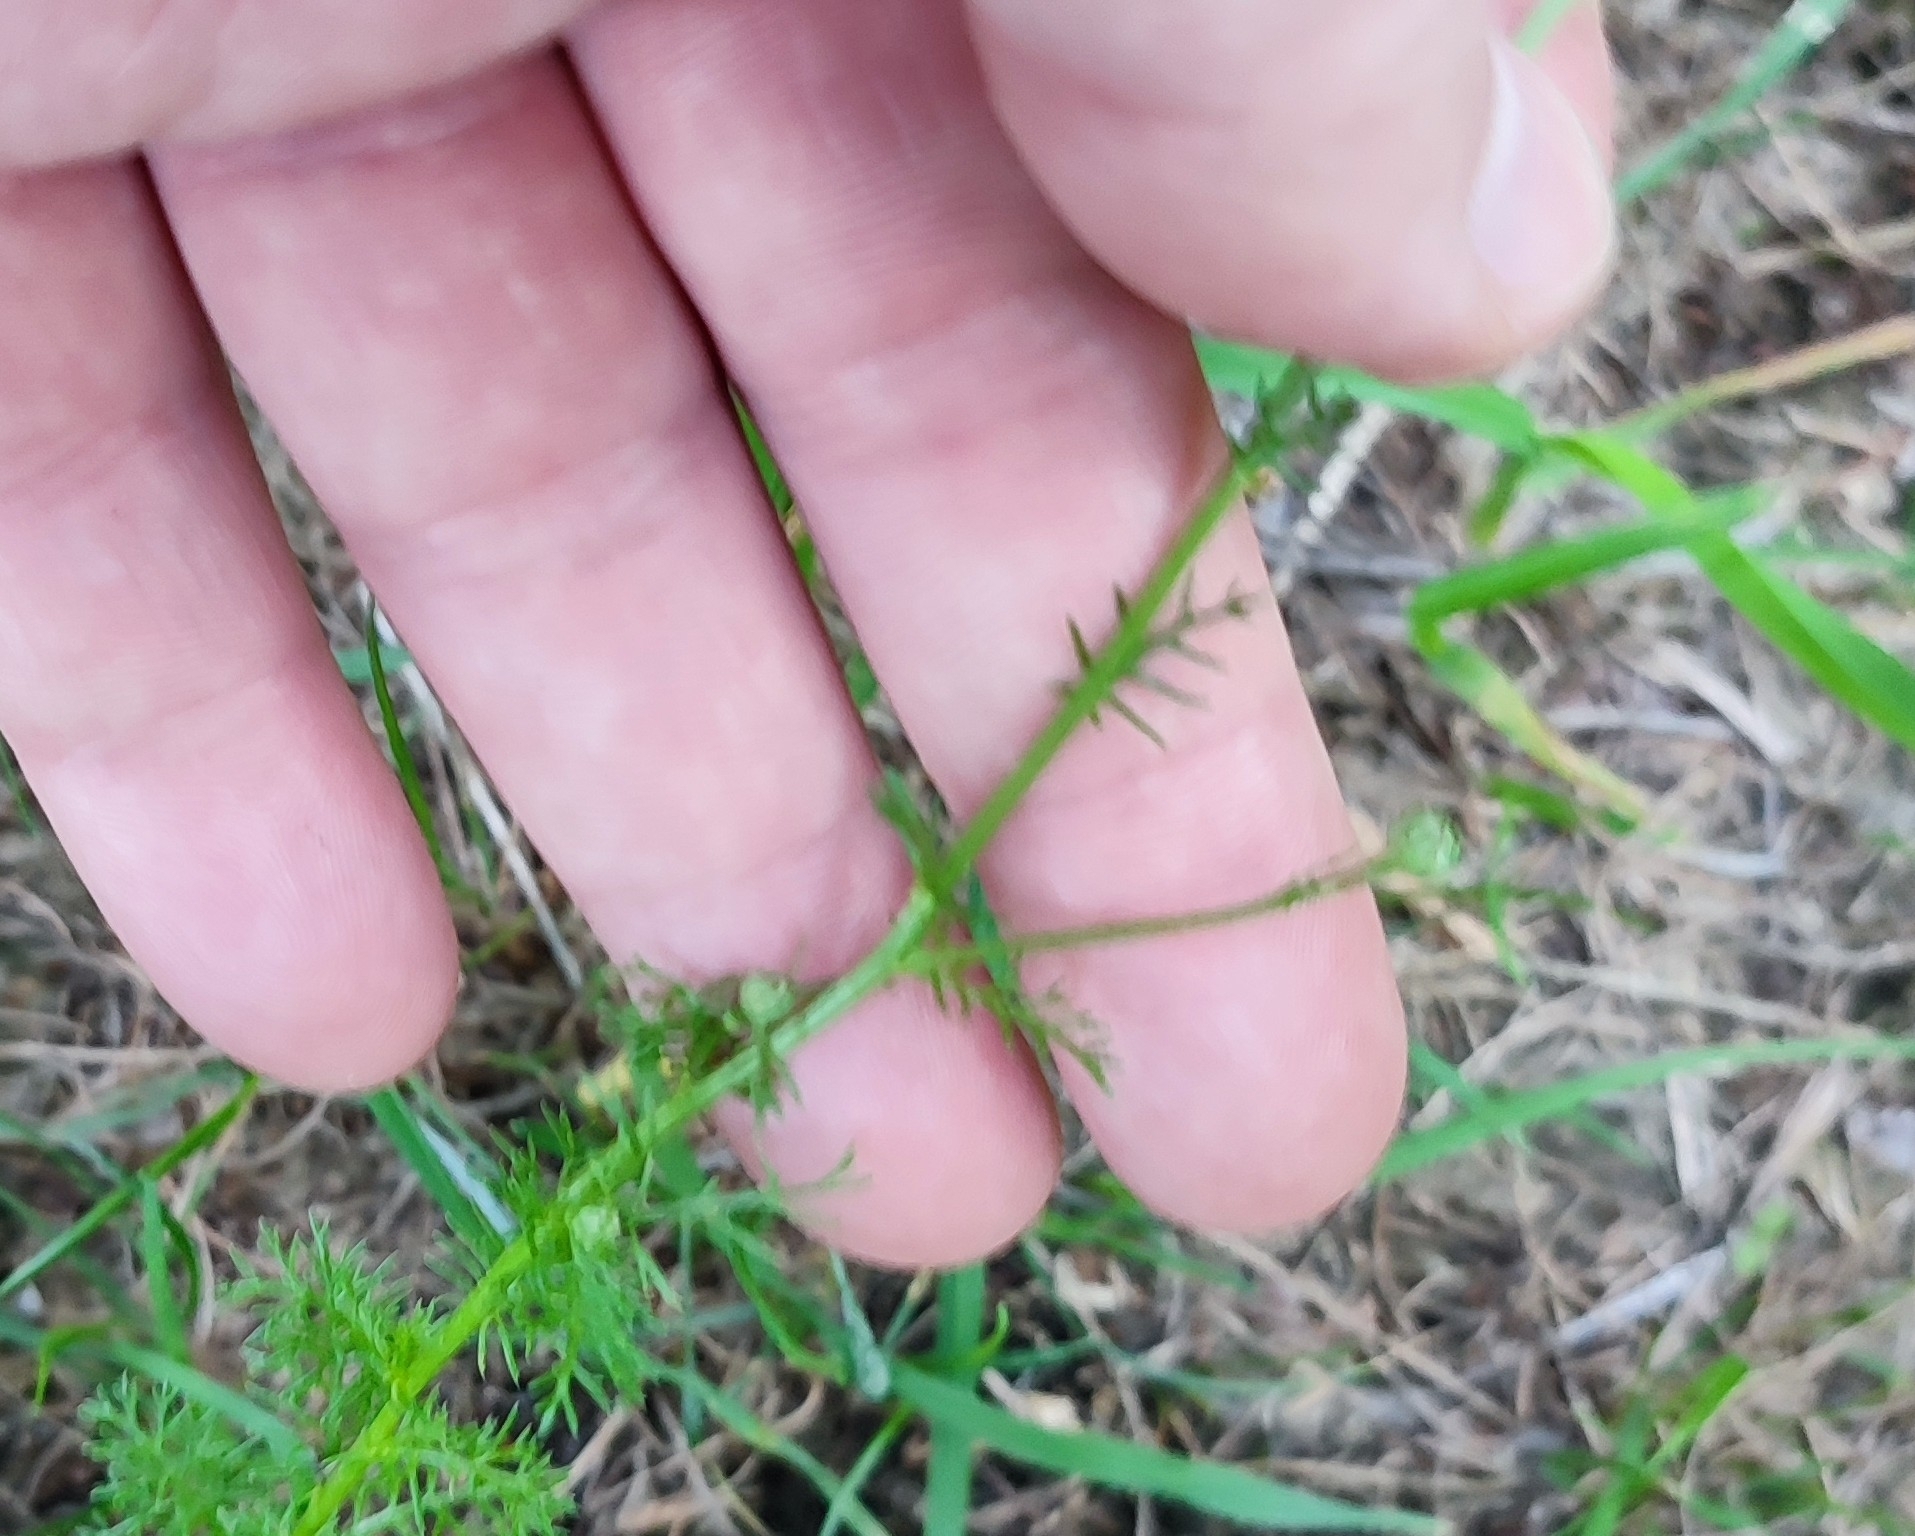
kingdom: Plantae
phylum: Tracheophyta
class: Magnoliopsida
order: Asterales
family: Asteraceae
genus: Tripleurospermum
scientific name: Tripleurospermum inodorum
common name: Scentless mayweed
